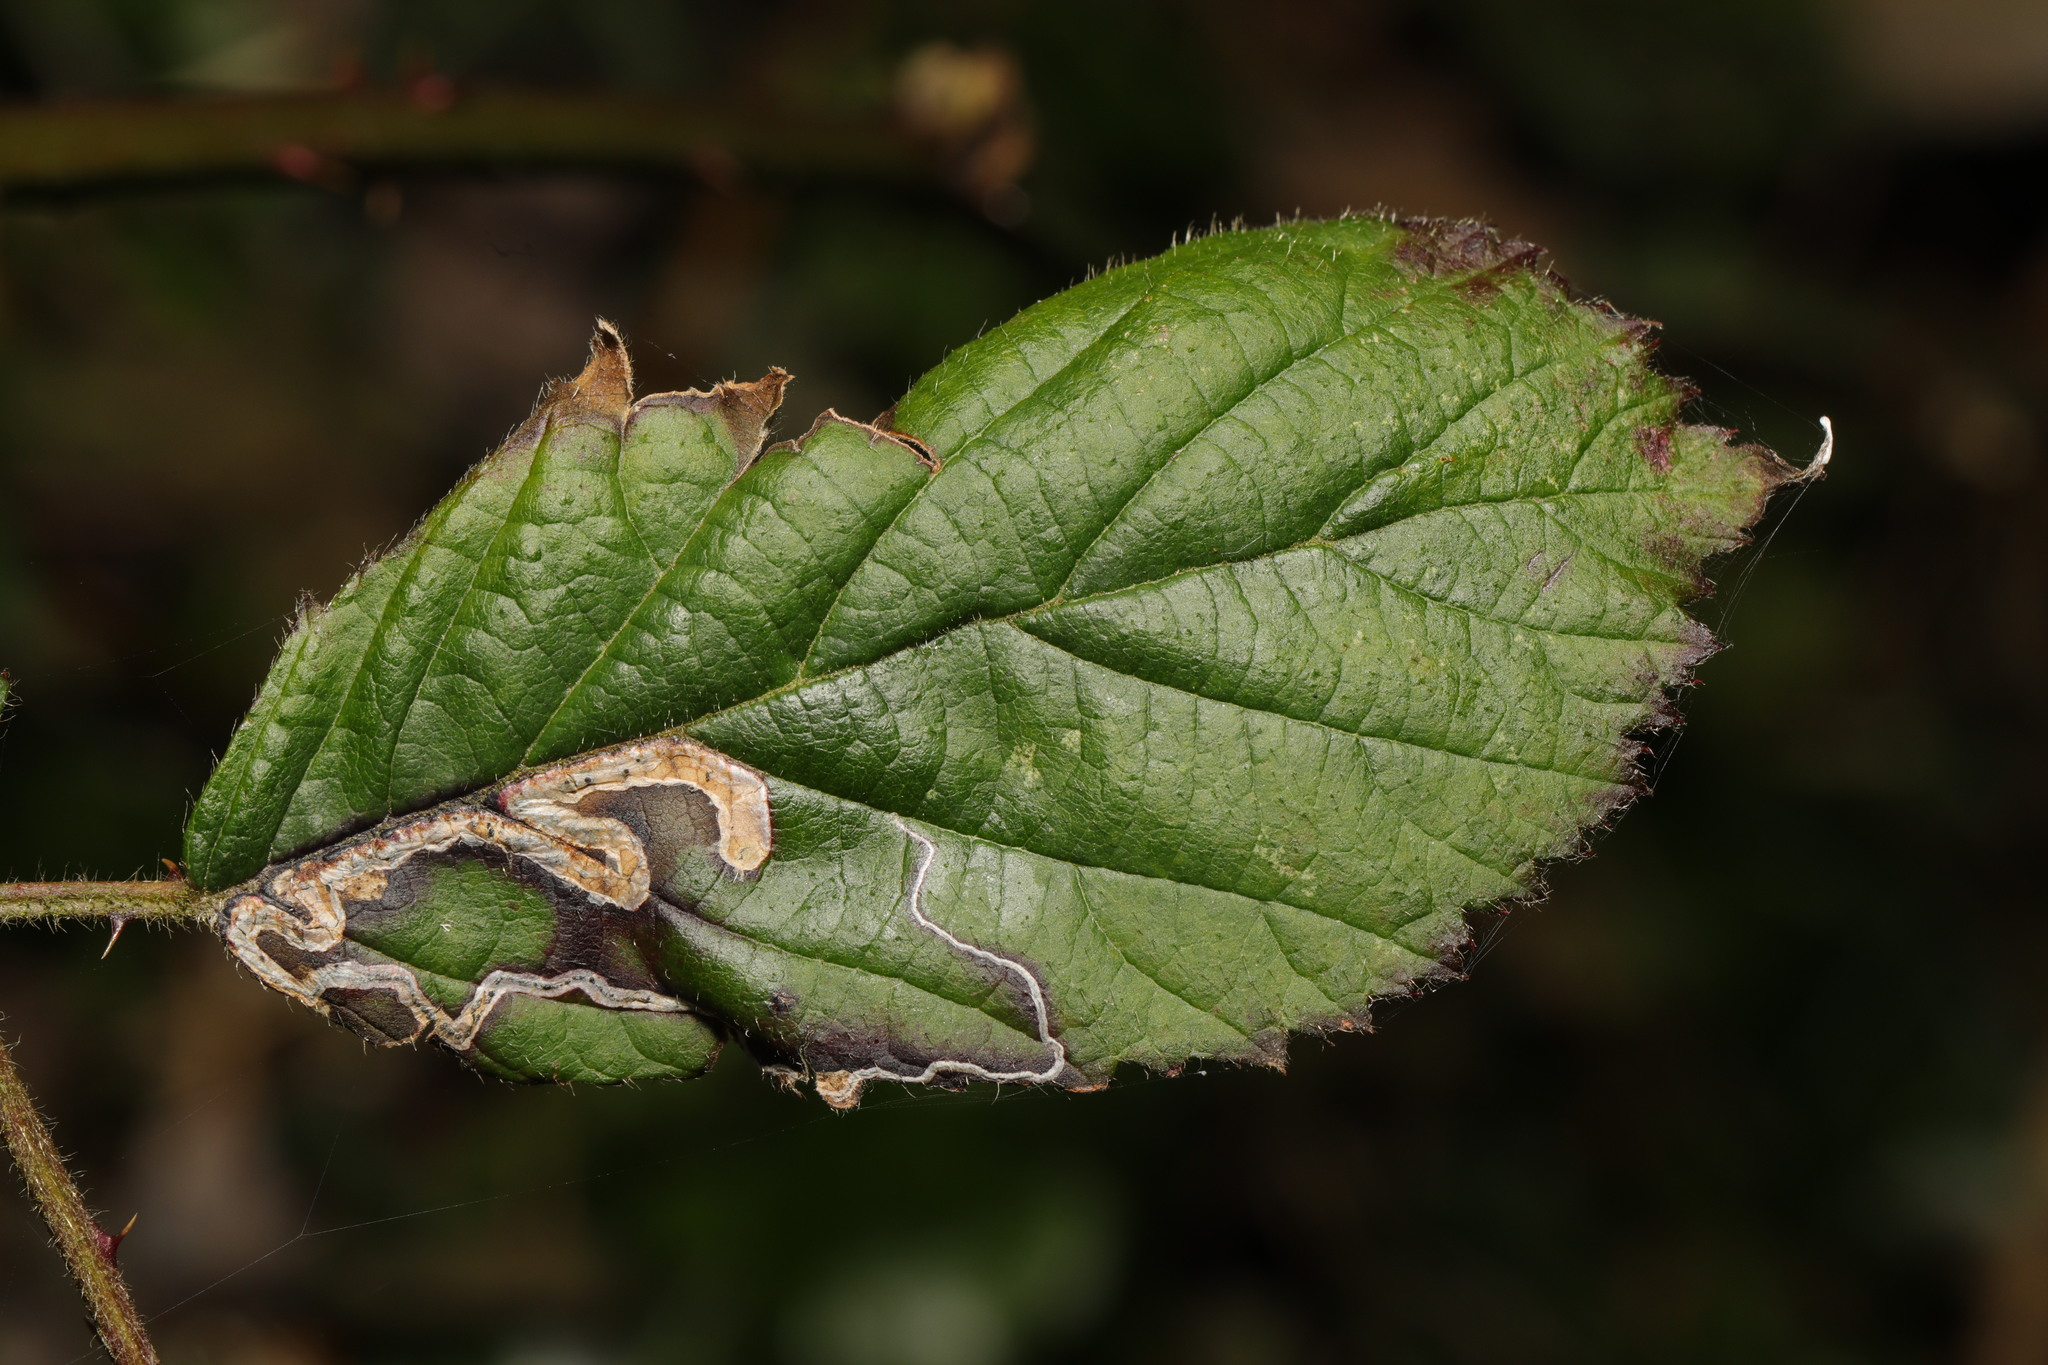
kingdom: Animalia
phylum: Arthropoda
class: Insecta
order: Lepidoptera
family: Nepticulidae
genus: Stigmella
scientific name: Stigmella aurella
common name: Golden pigmy
